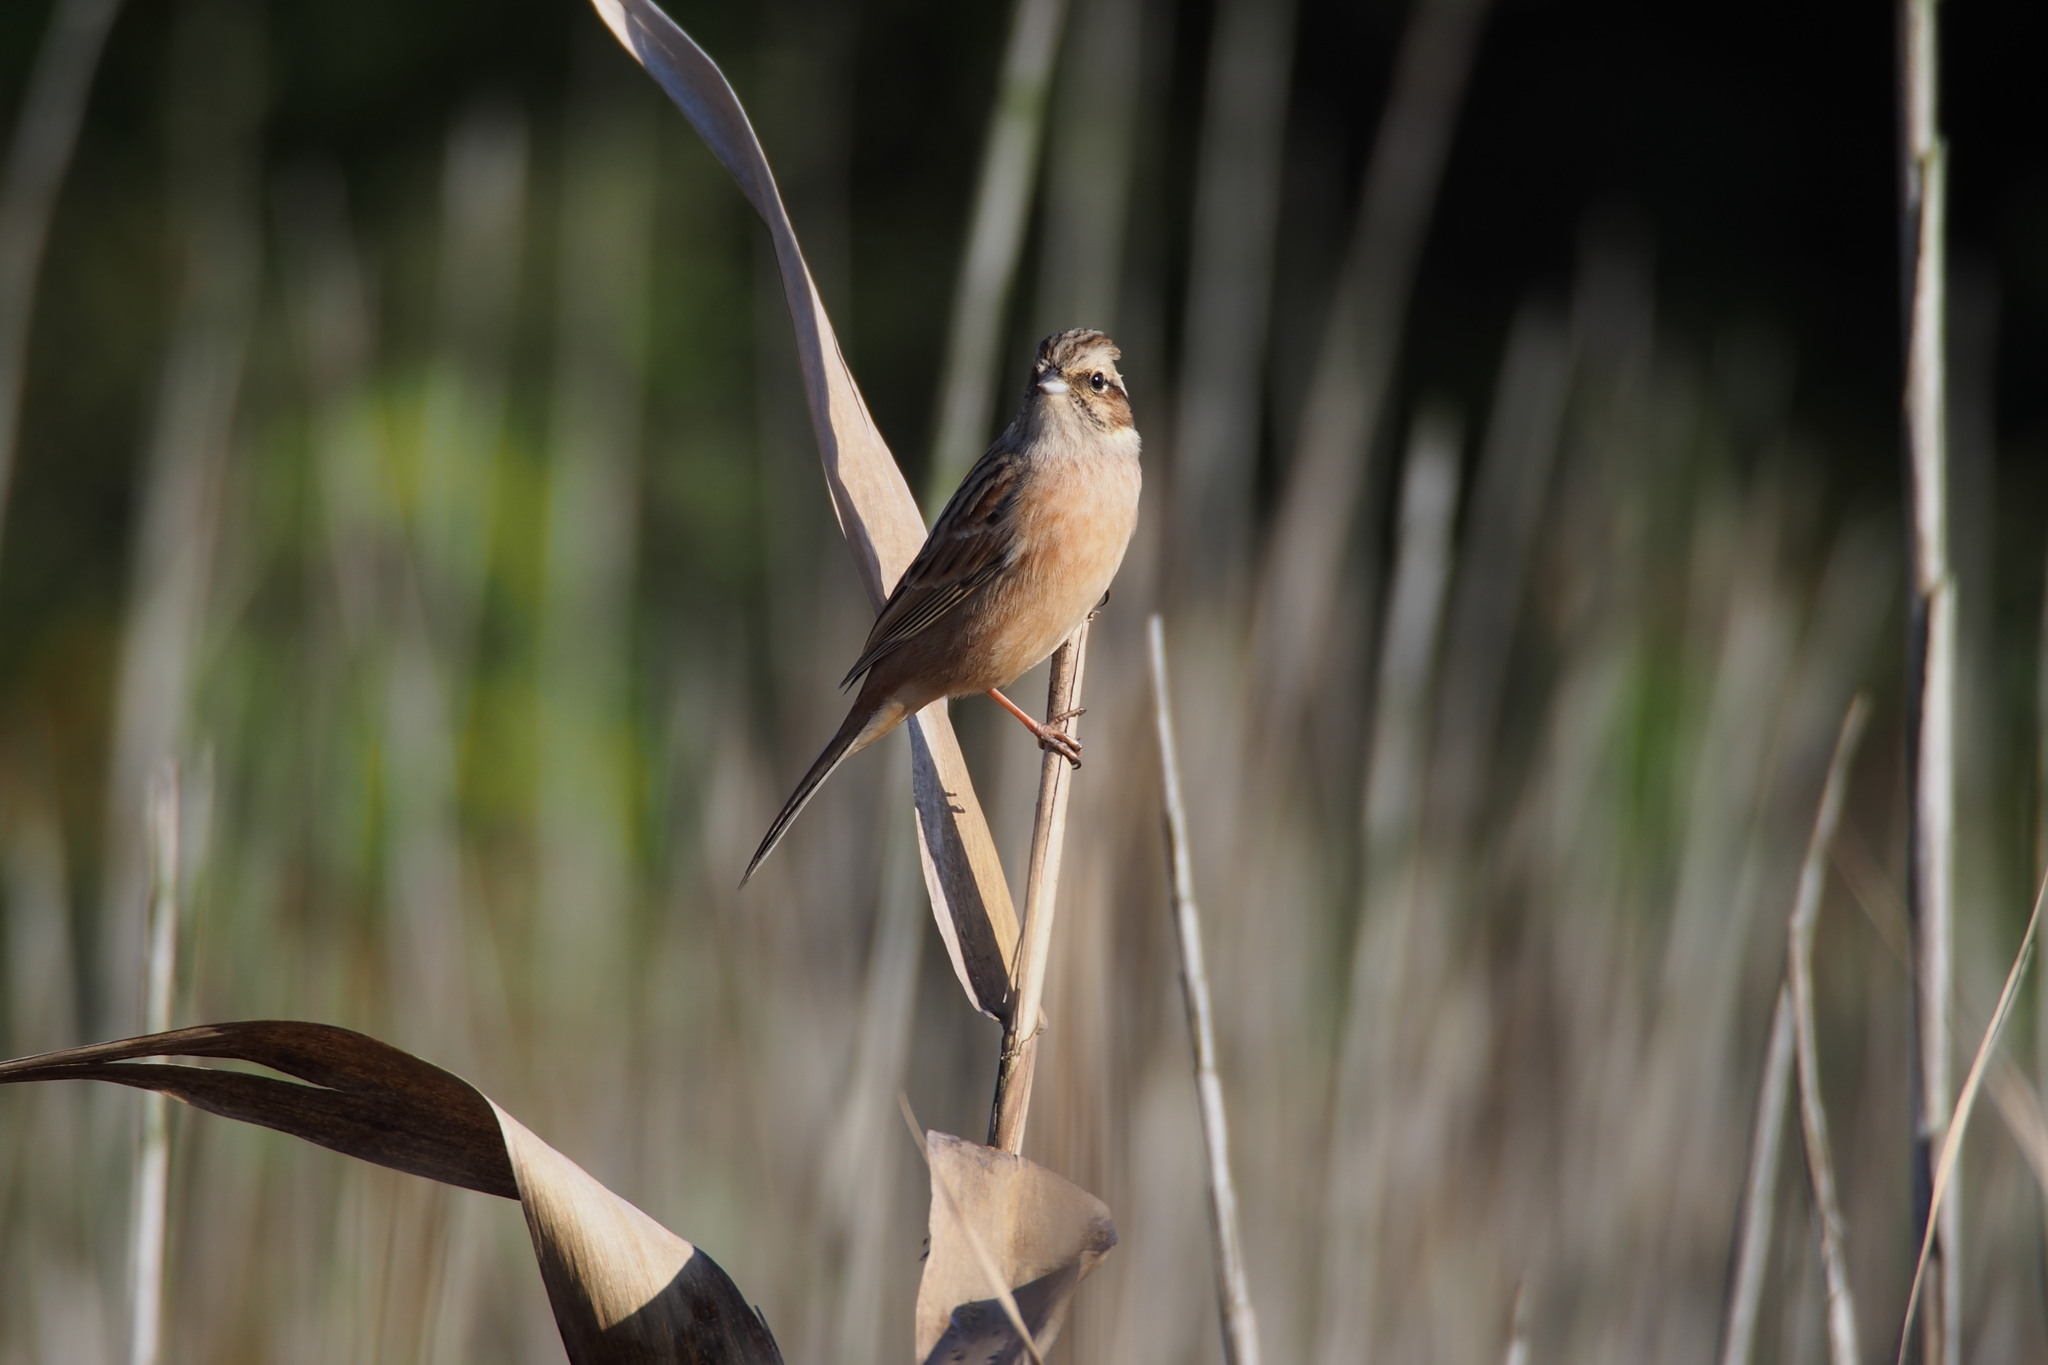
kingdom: Animalia
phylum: Chordata
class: Aves
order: Passeriformes
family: Emberizidae
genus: Emberiza
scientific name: Emberiza cioides
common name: Meadow bunting
